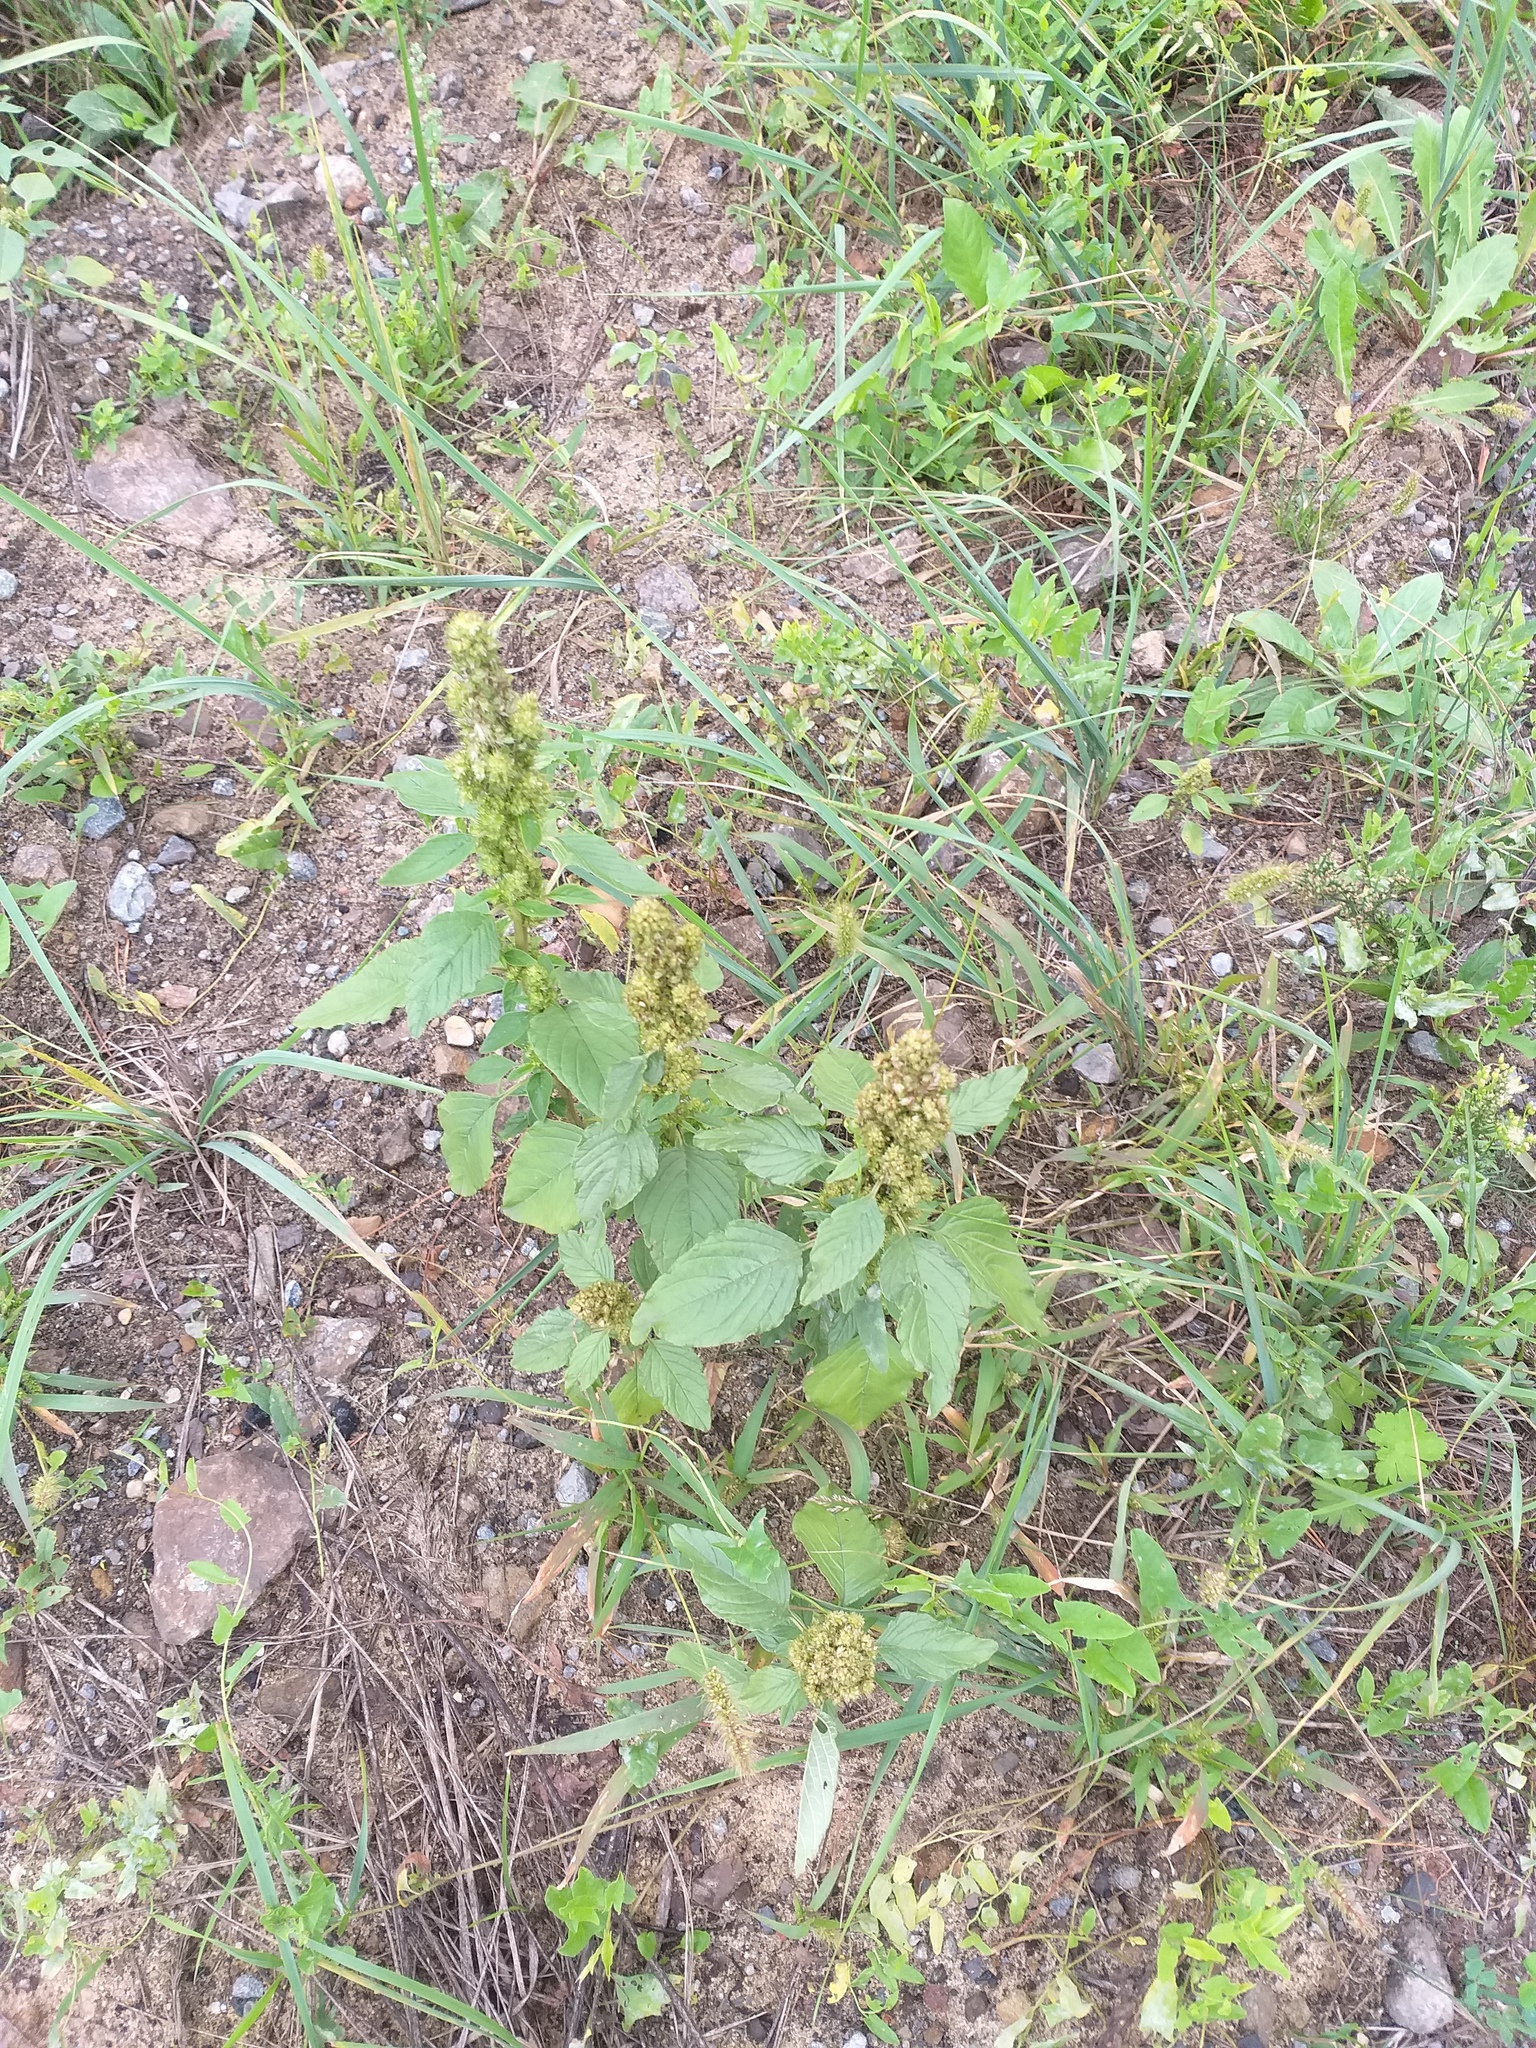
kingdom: Plantae
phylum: Tracheophyta
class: Magnoliopsida
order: Caryophyllales
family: Amaranthaceae
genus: Amaranthus
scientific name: Amaranthus retroflexus
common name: Redroot amaranth
